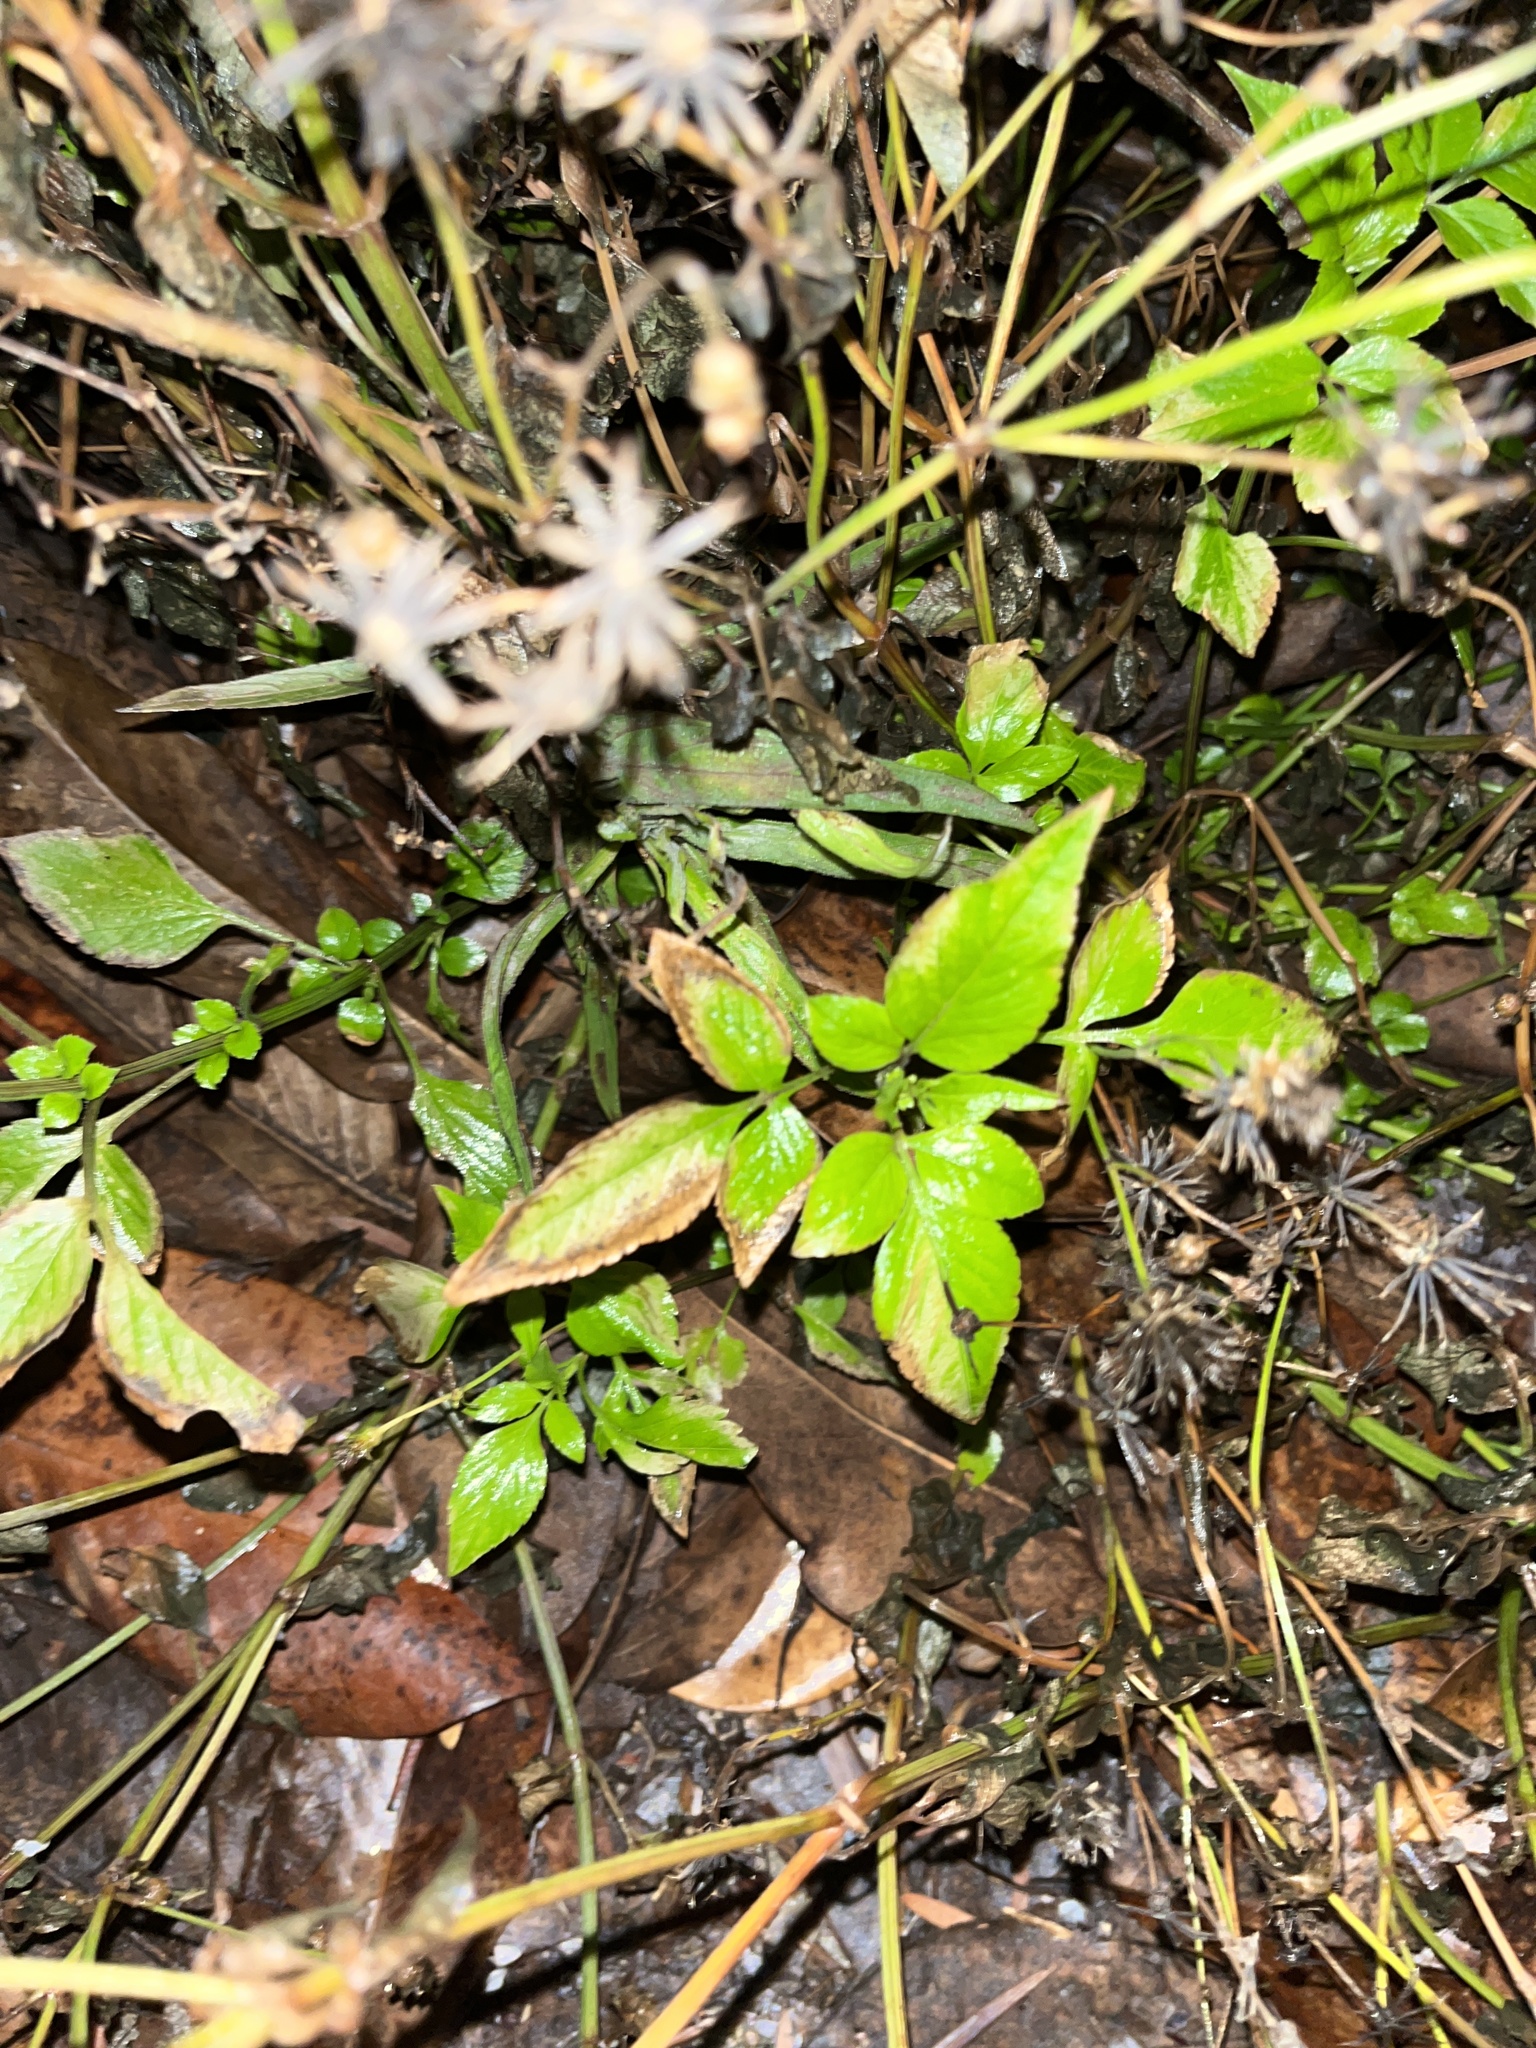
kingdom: Plantae
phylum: Tracheophyta
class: Magnoliopsida
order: Asterales
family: Asteraceae
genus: Bidens
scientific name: Bidens alba
